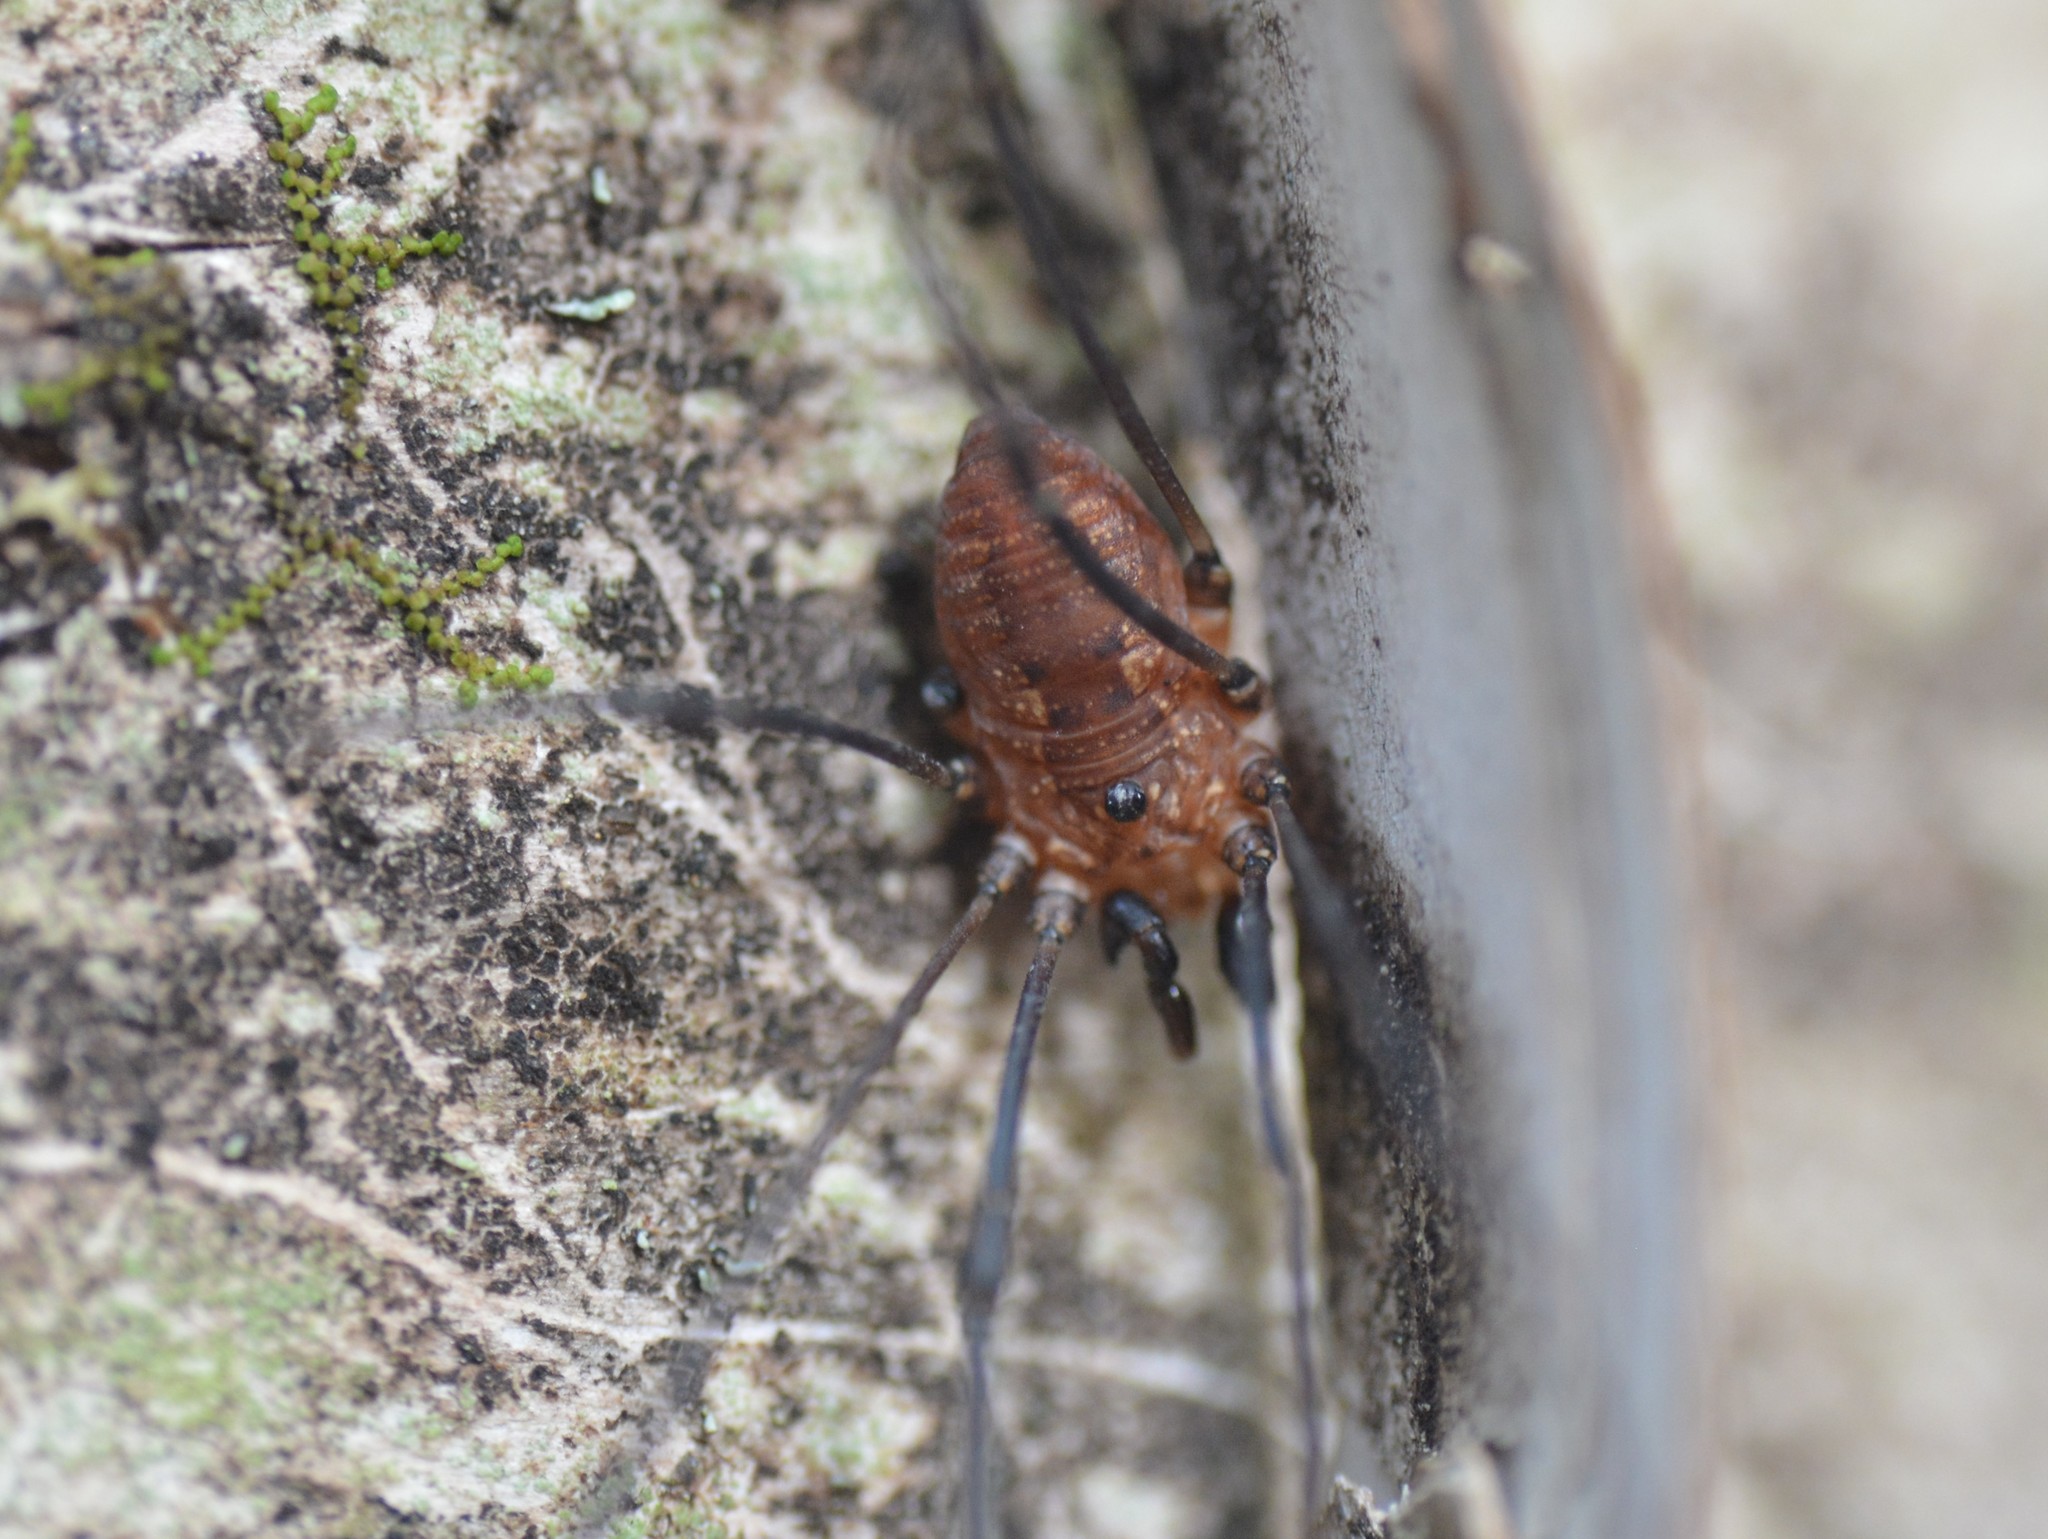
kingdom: Animalia
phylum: Arthropoda
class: Arachnida
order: Opiliones
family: Sclerosomatidae
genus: Leiobunum
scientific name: Leiobunum calcar
